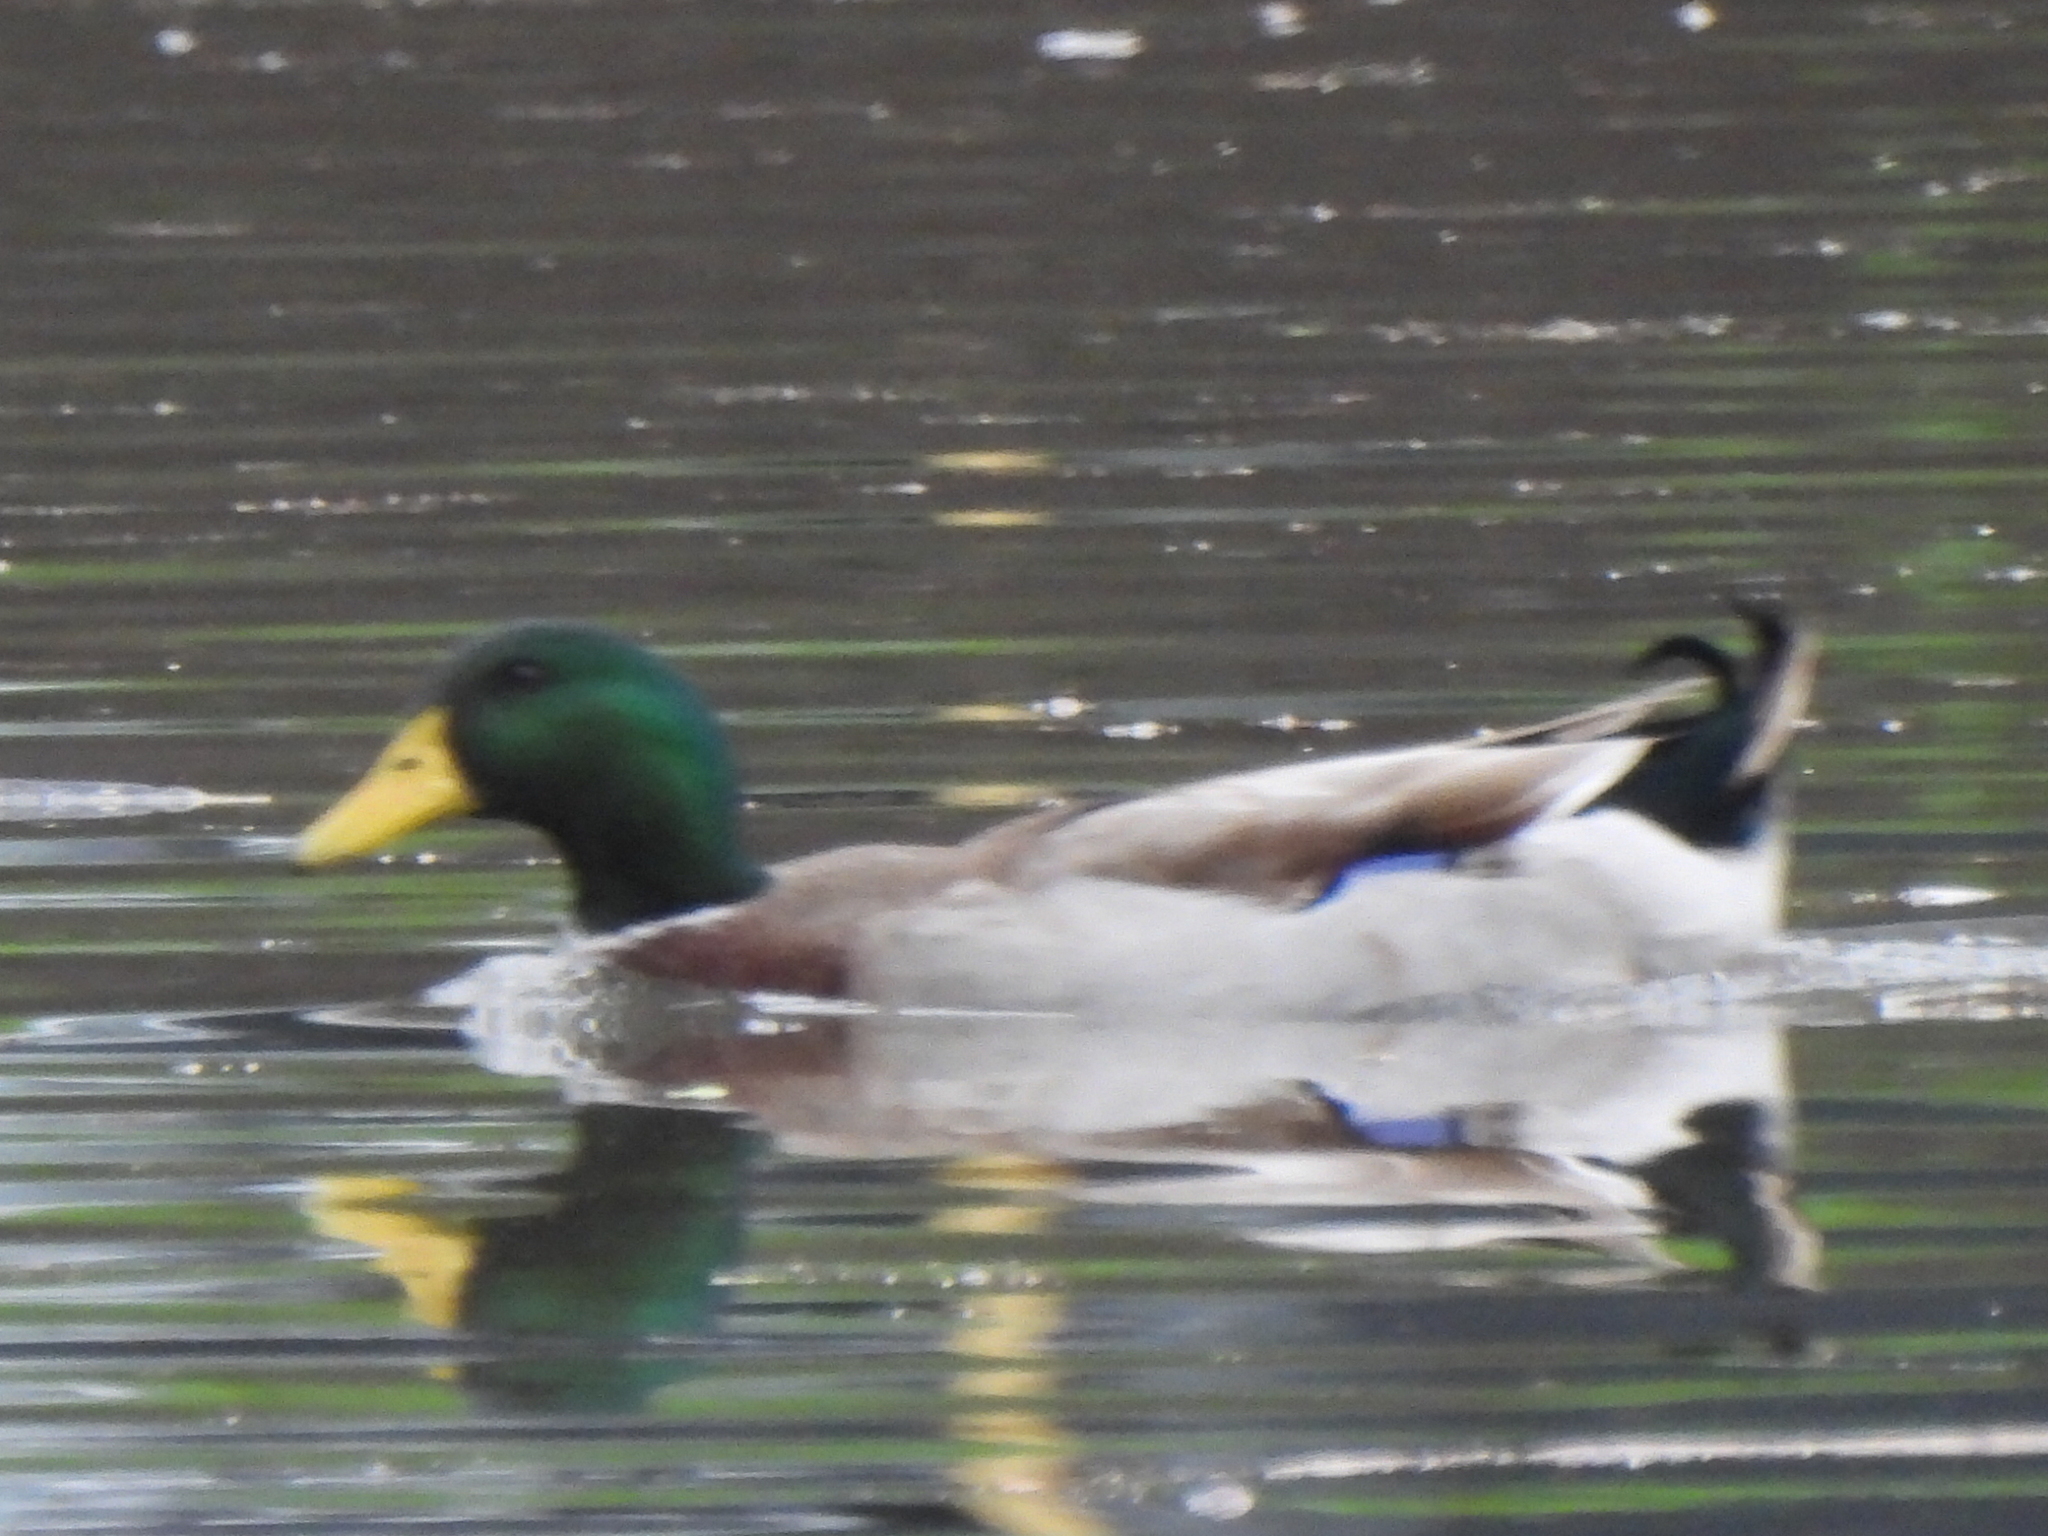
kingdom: Animalia
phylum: Chordata
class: Aves
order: Anseriformes
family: Anatidae
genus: Anas
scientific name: Anas platyrhynchos
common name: Mallard
